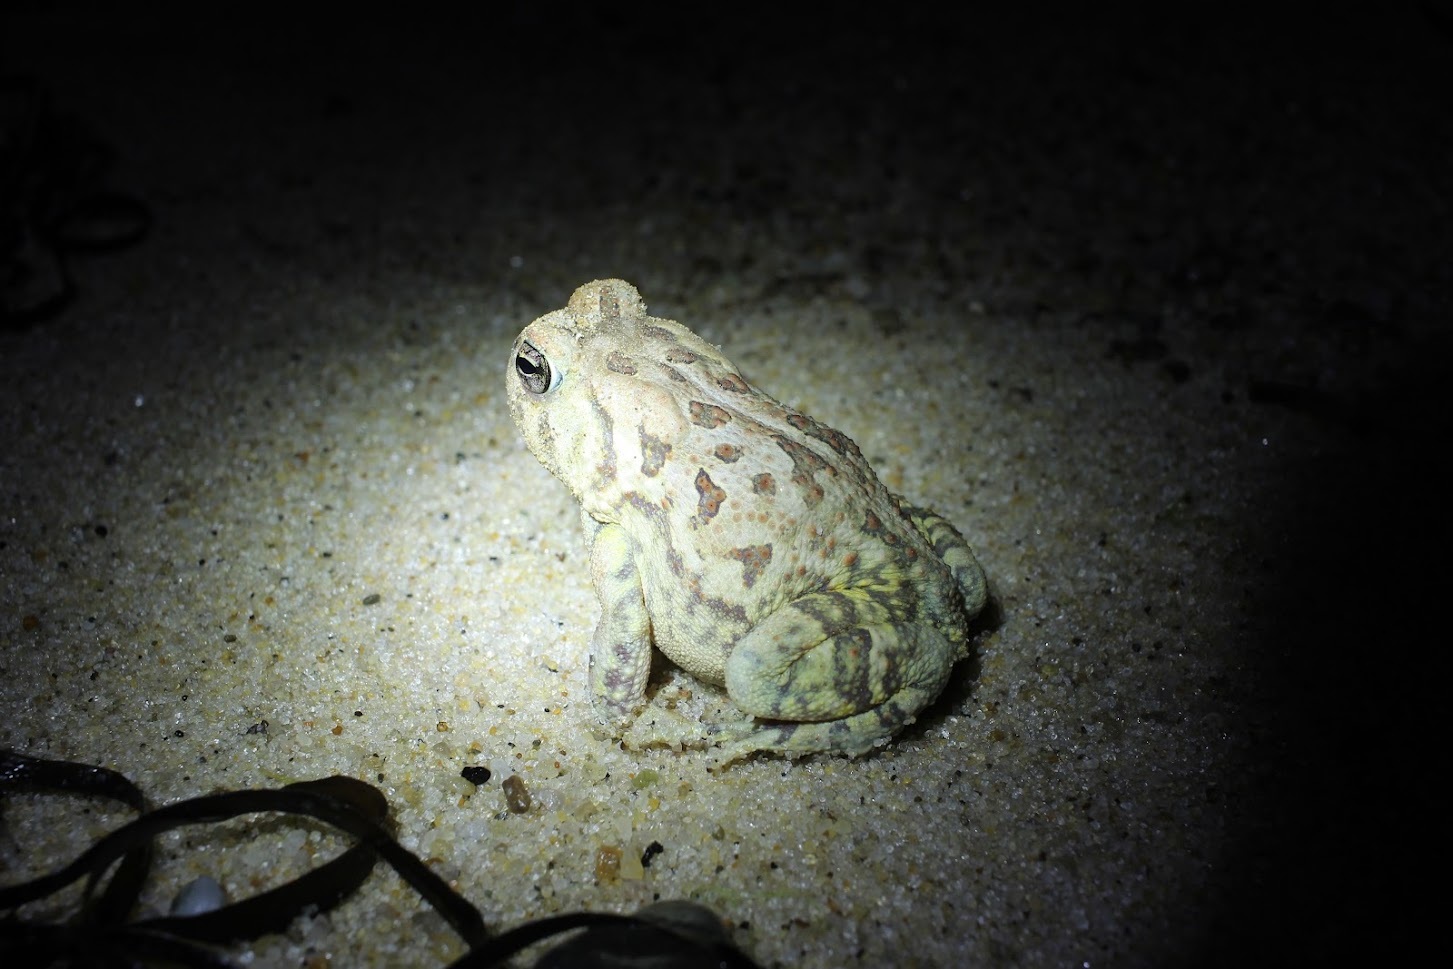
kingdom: Animalia
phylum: Chordata
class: Amphibia
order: Anura
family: Bufonidae
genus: Anaxyrus
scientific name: Anaxyrus fowleri
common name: Fowler's toad
